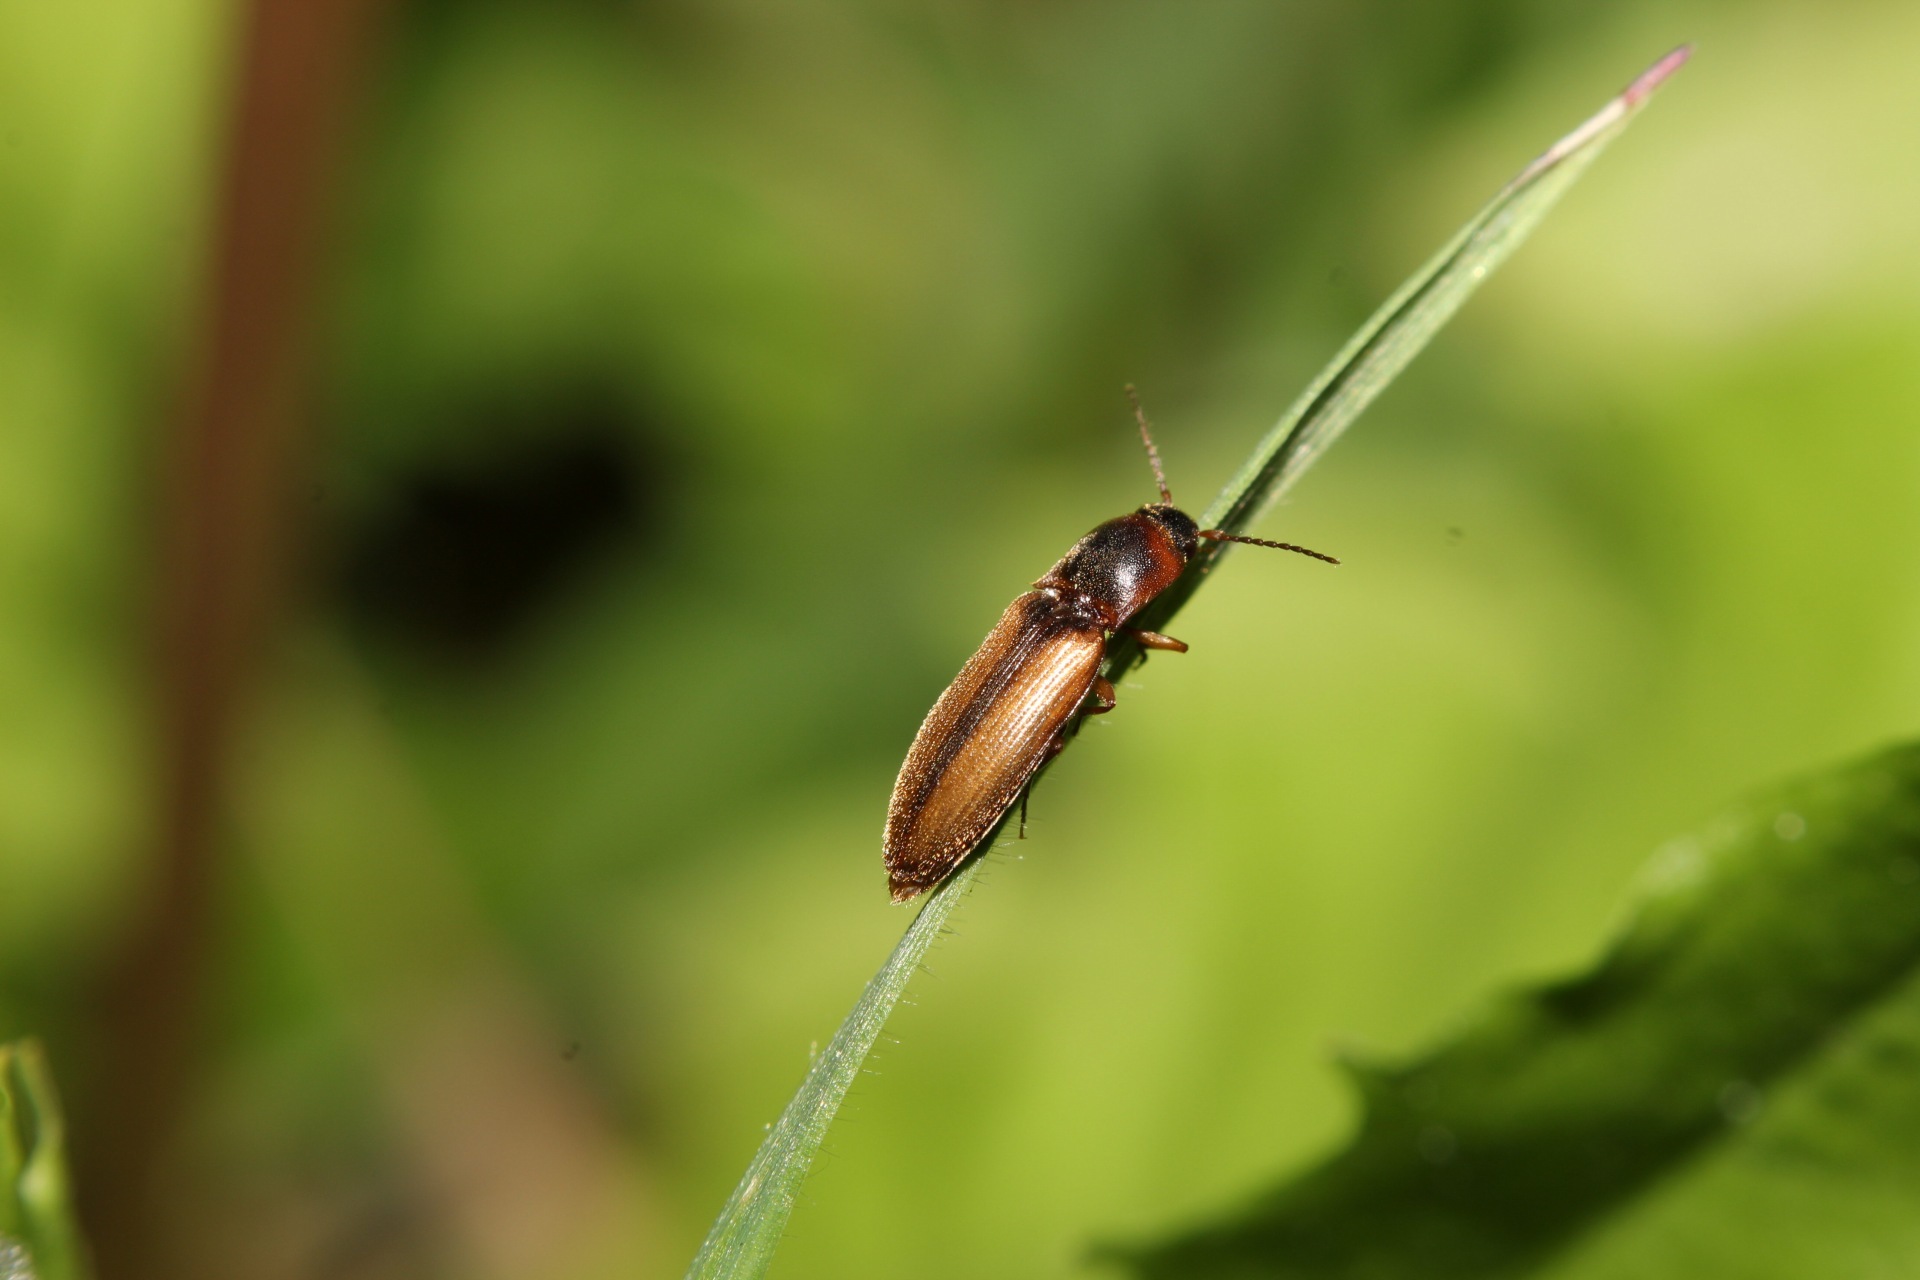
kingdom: Animalia
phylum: Arthropoda
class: Insecta
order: Coleoptera
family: Elateridae
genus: Dalopius
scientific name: Dalopius marginatus
